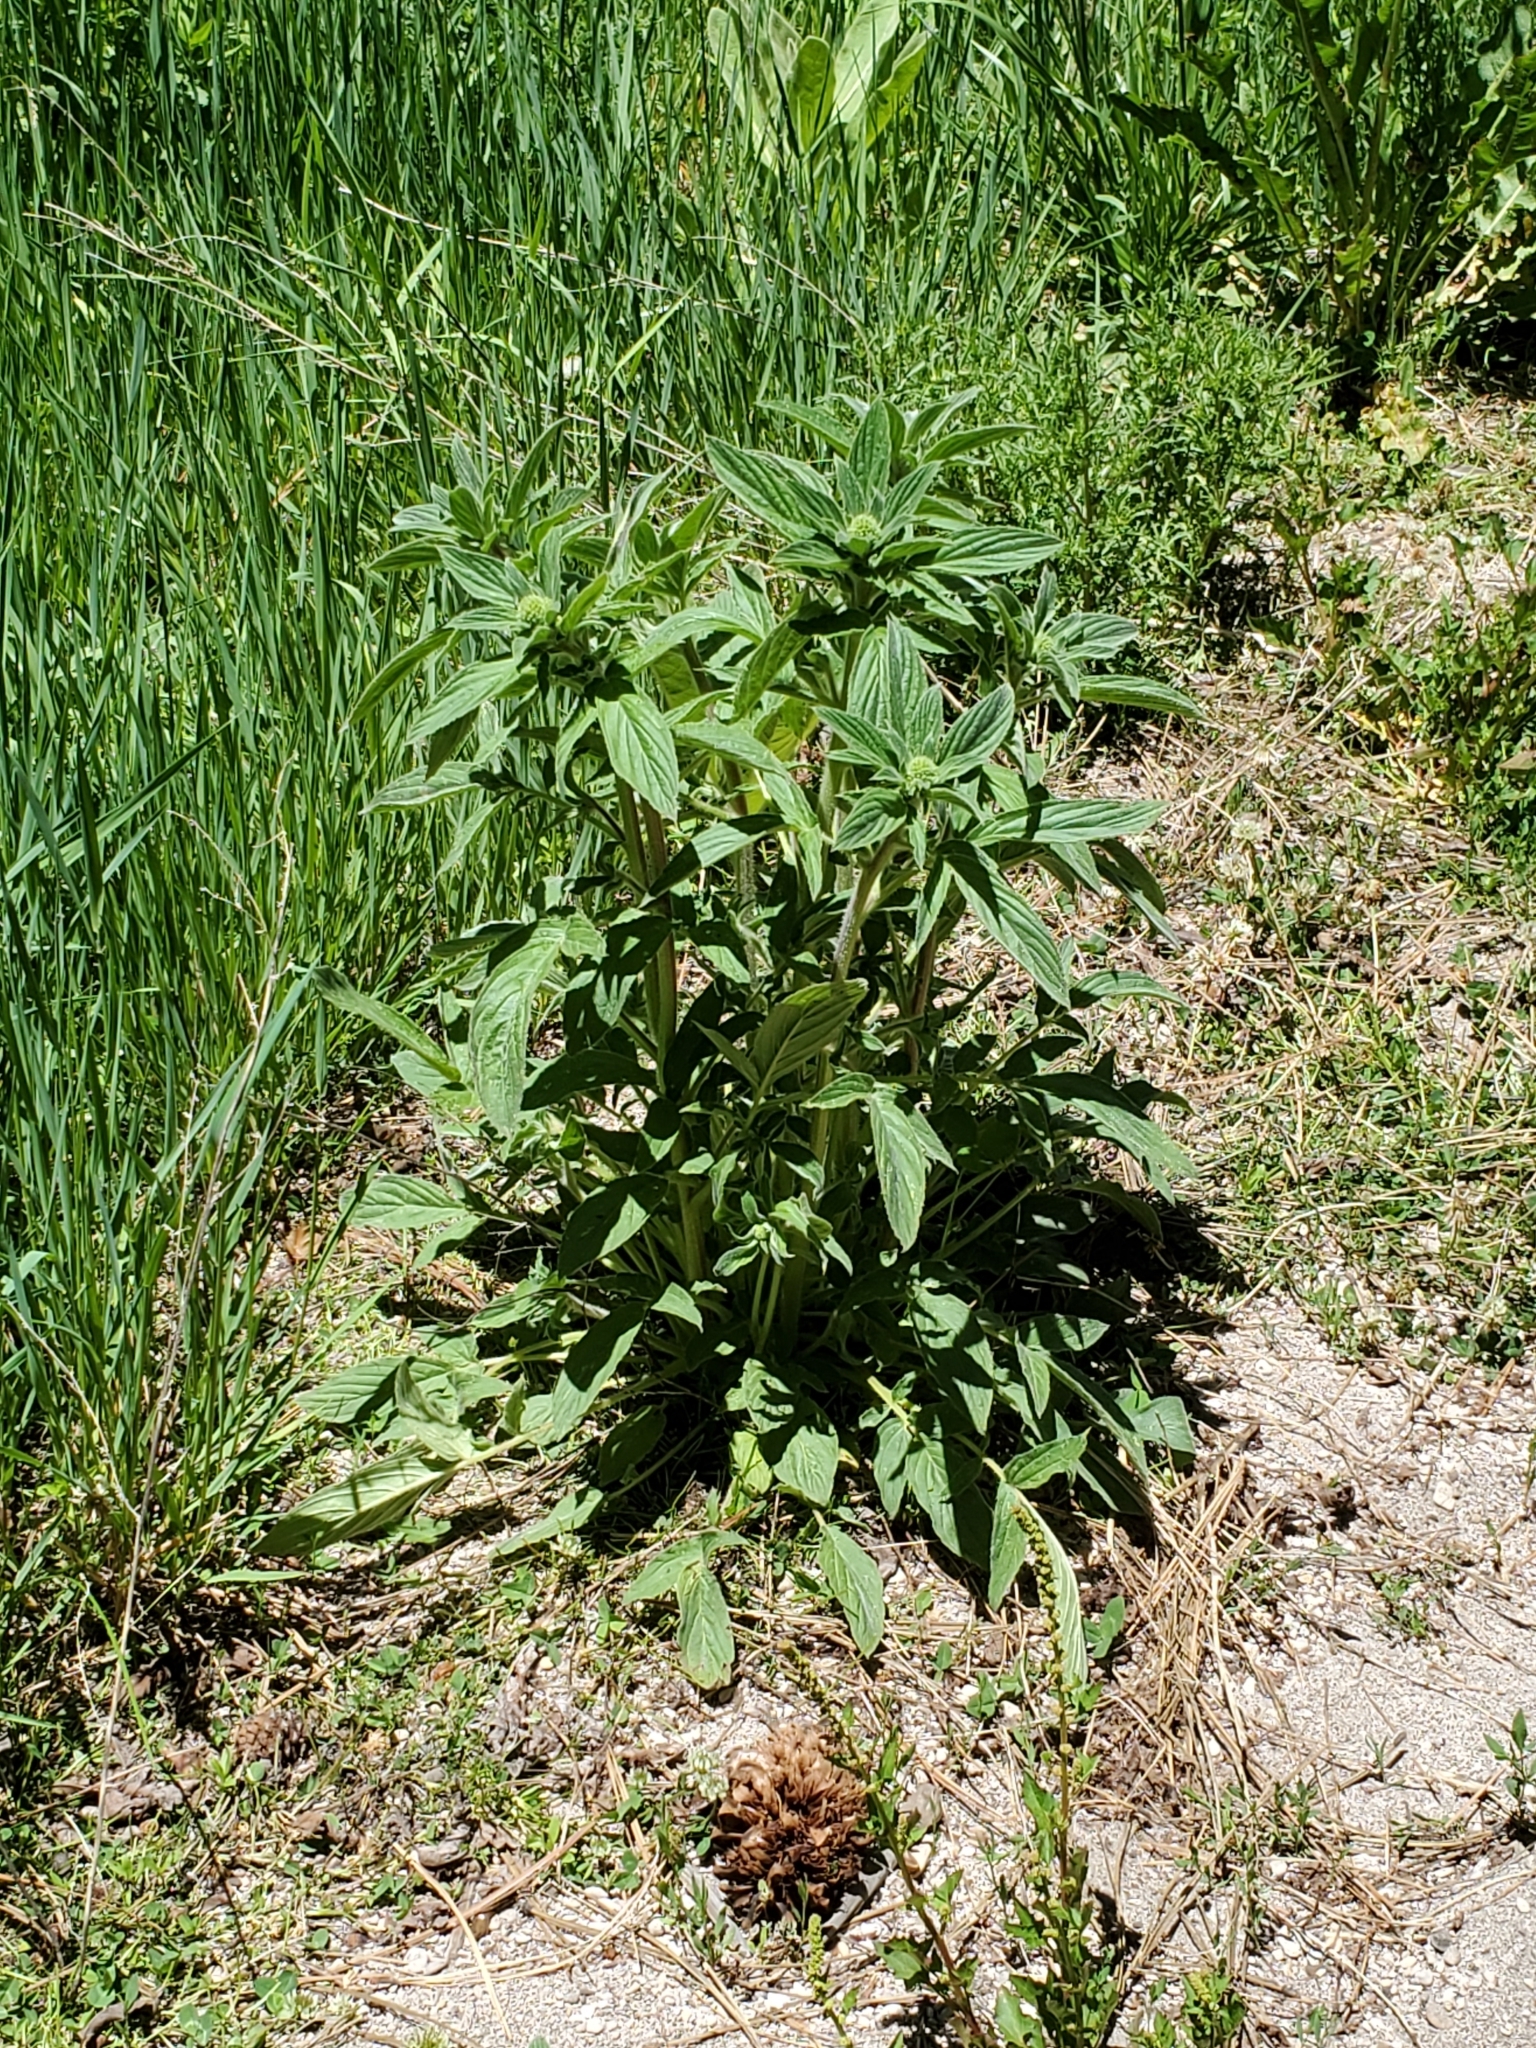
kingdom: Plantae
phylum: Tracheophyta
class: Magnoliopsida
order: Boraginales
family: Hydrophyllaceae
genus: Phacelia
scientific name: Phacelia heterophylla
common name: Variable-leaved phacelia
